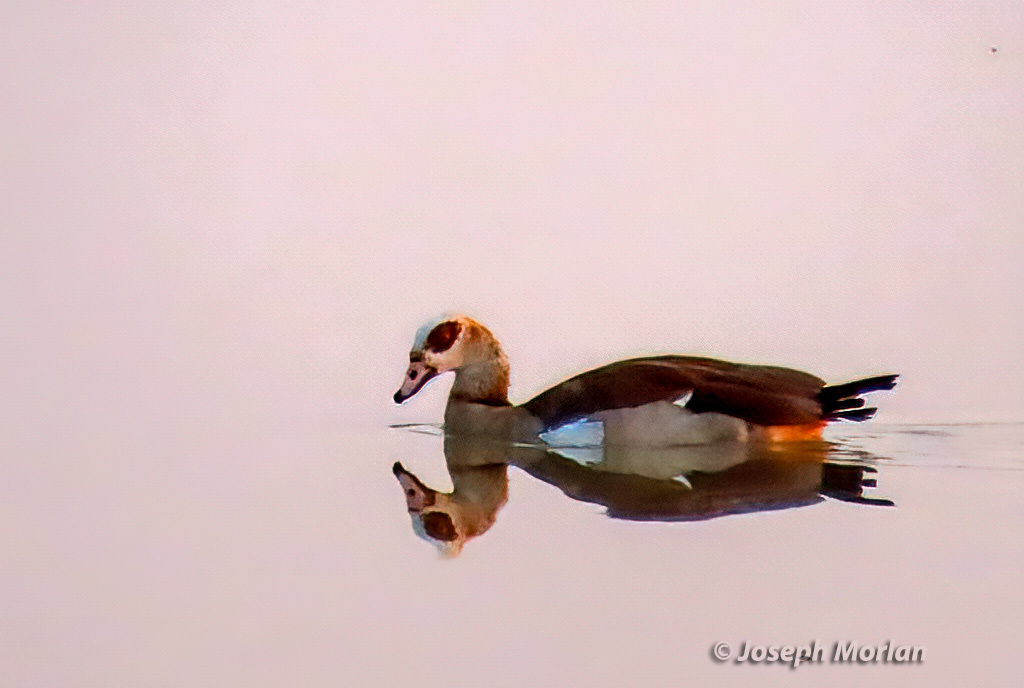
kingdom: Animalia
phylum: Chordata
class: Aves
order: Anseriformes
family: Anatidae
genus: Alopochen
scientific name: Alopochen aegyptiaca
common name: Egyptian goose
